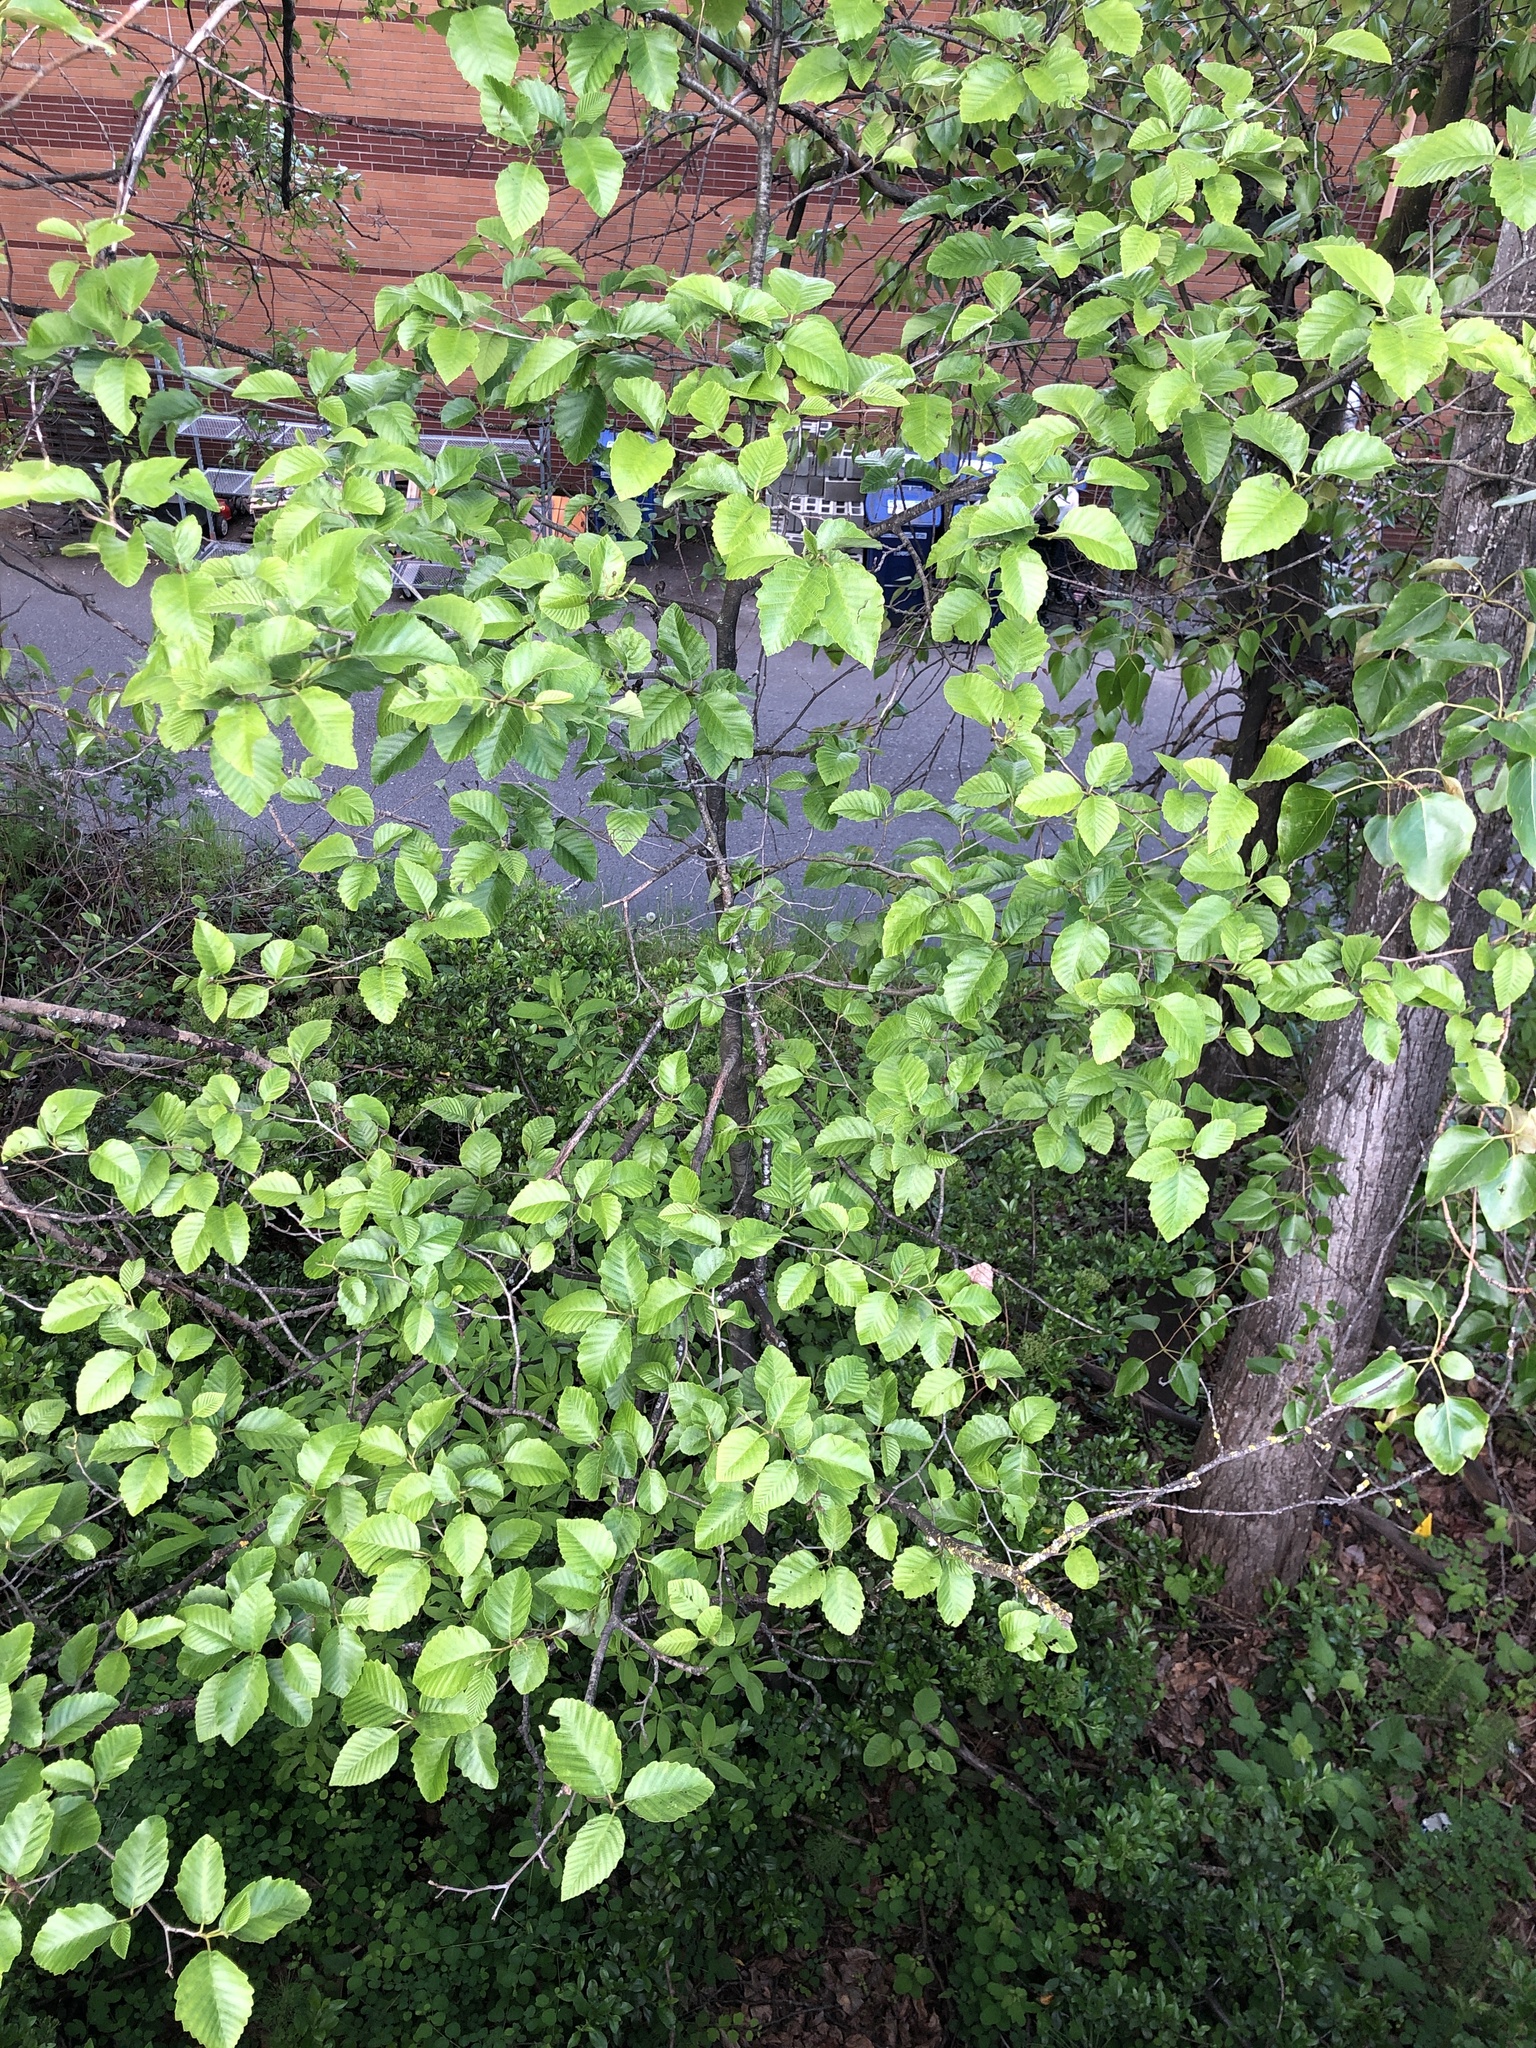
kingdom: Plantae
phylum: Tracheophyta
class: Magnoliopsida
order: Fagales
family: Betulaceae
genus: Alnus
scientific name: Alnus rubra
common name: Red alder
